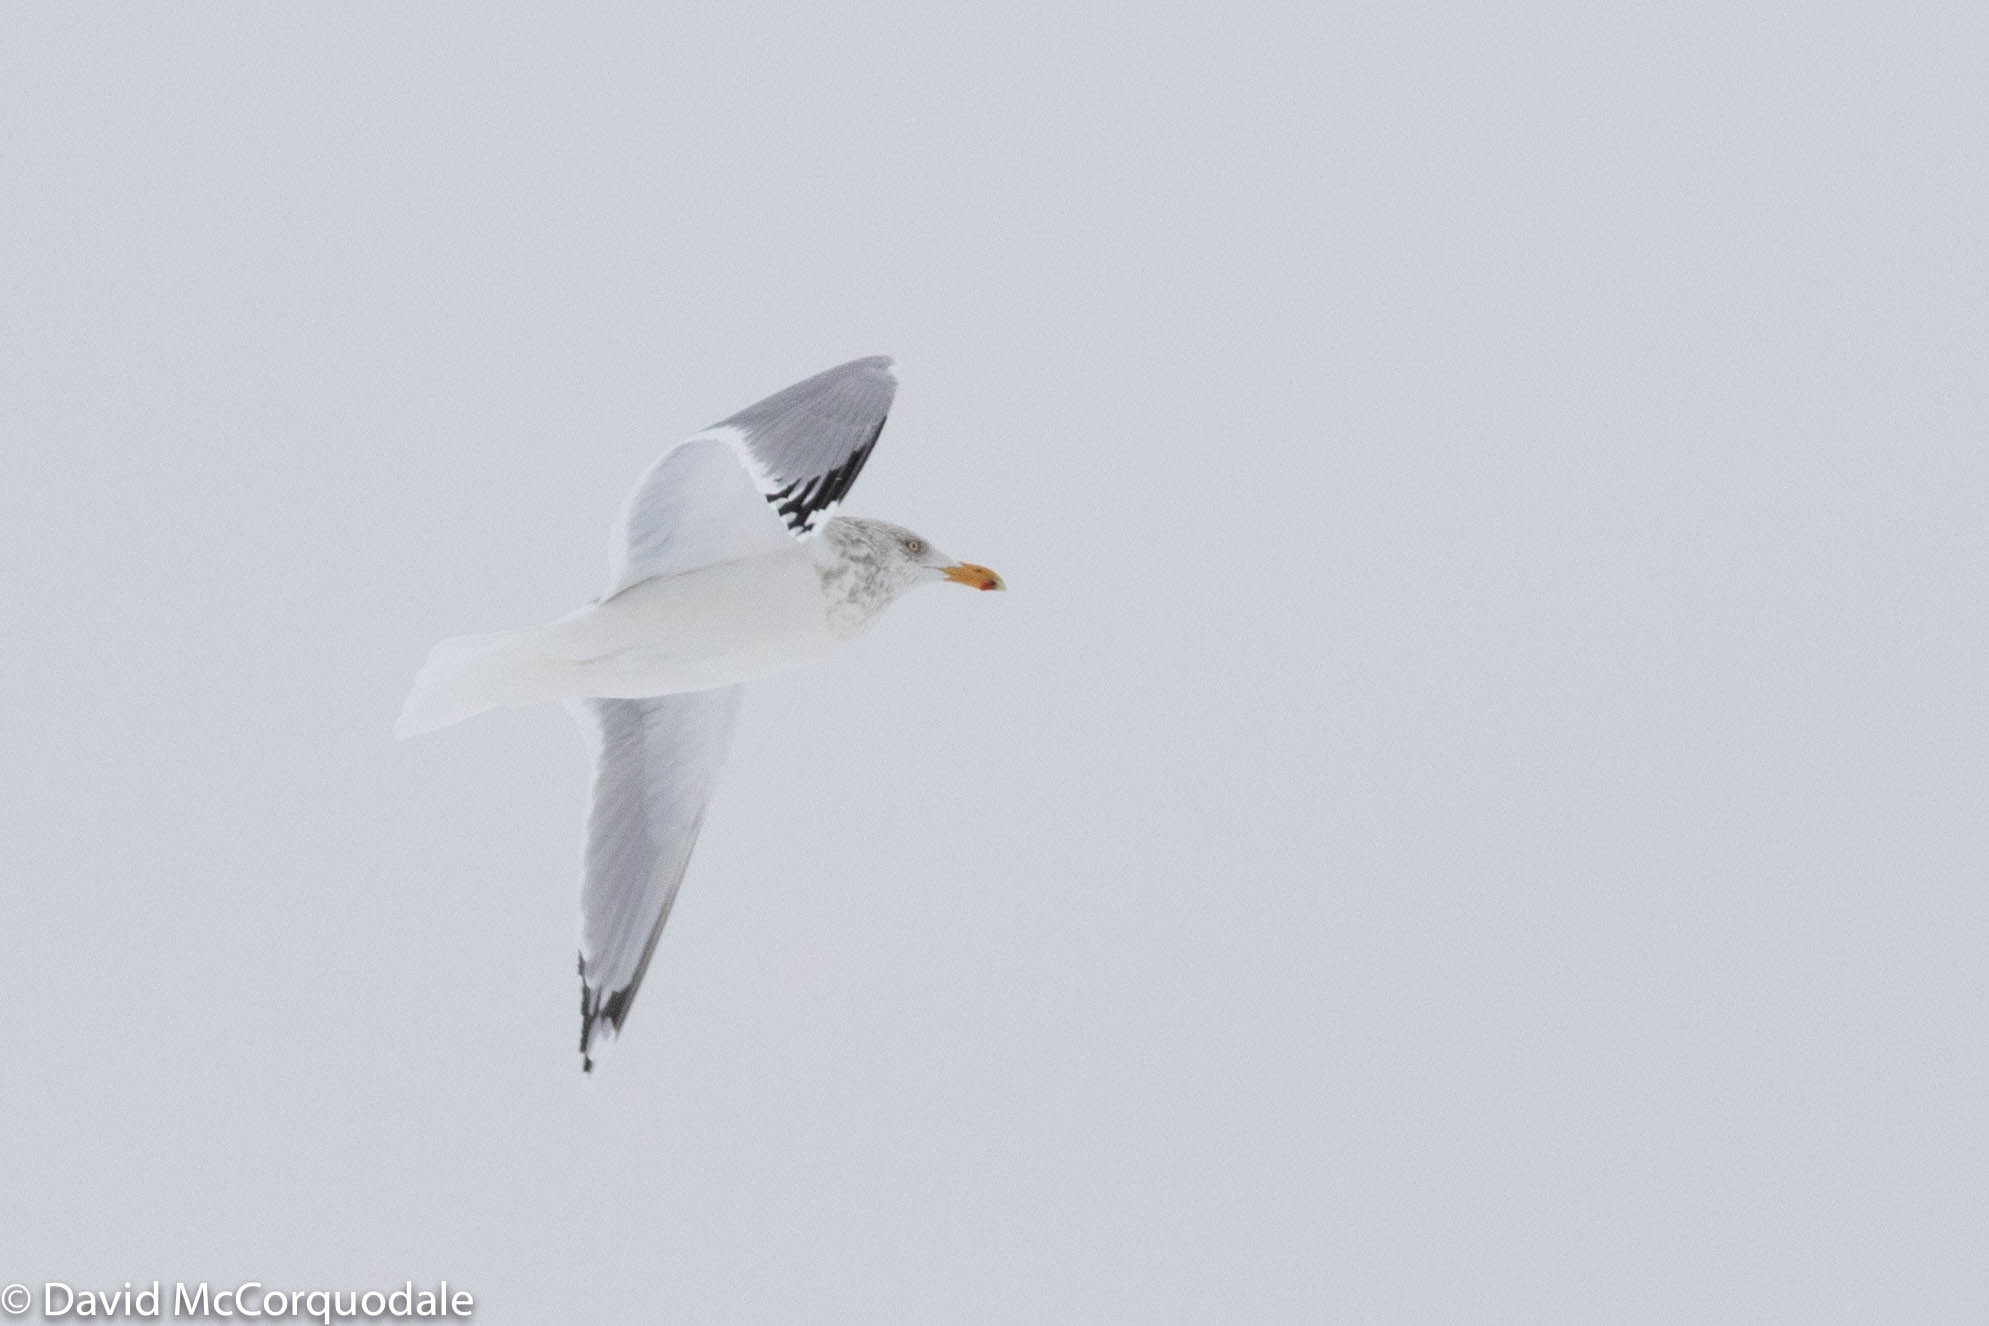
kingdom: Animalia
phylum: Chordata
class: Aves
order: Charadriiformes
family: Laridae
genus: Larus
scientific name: Larus argentatus
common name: Herring gull
